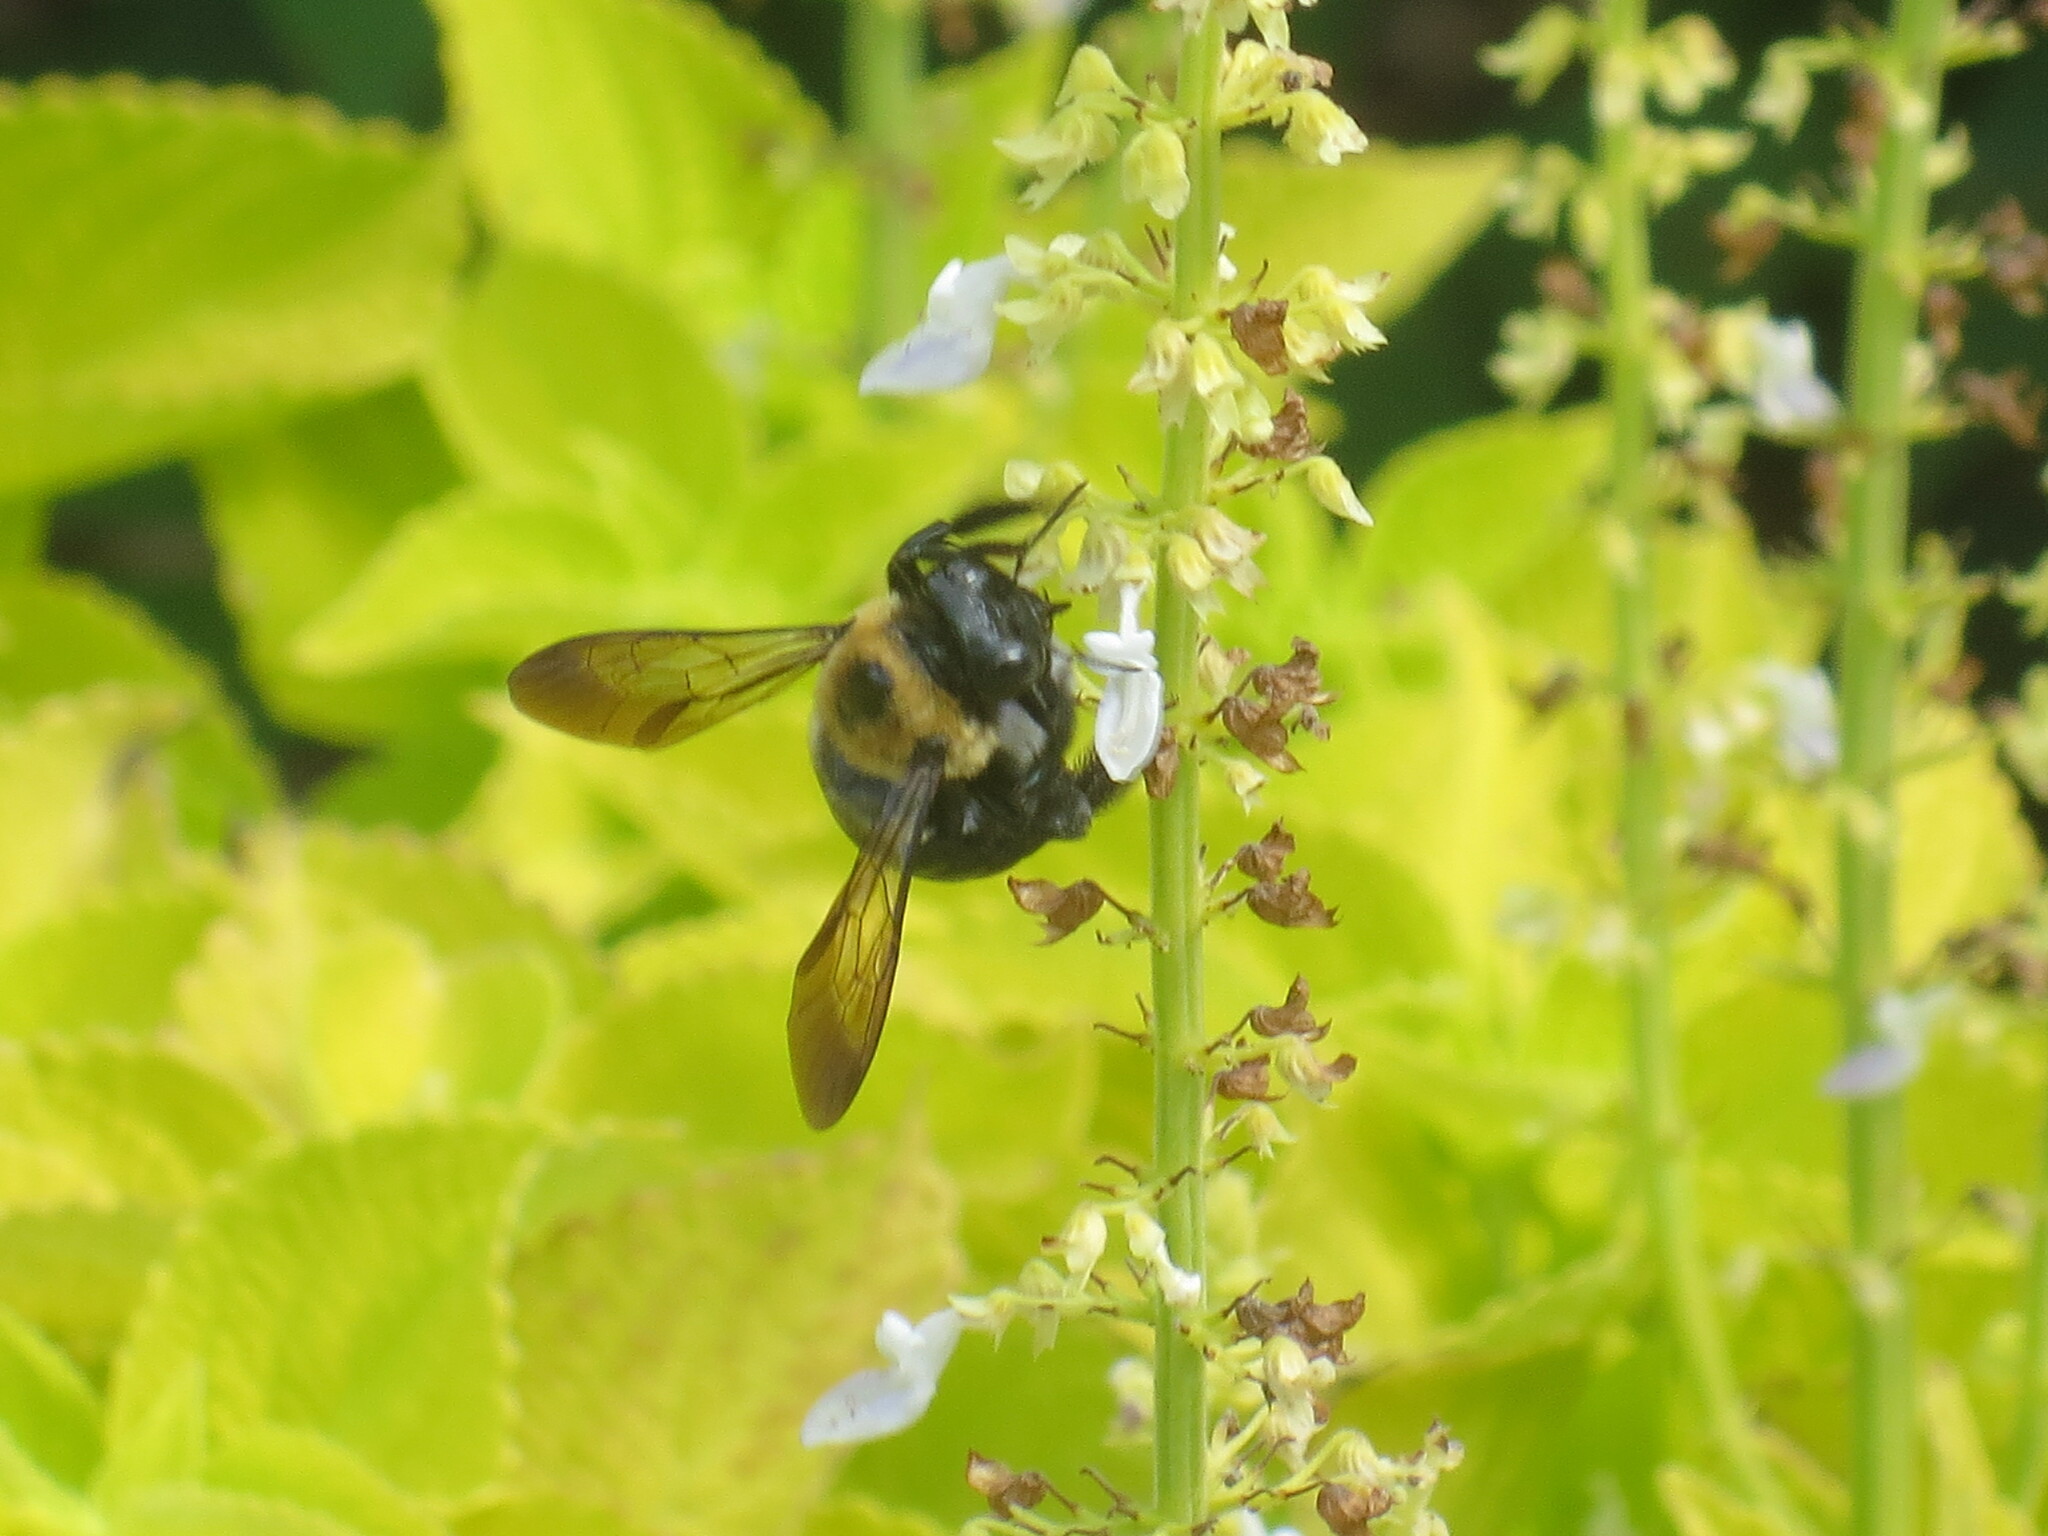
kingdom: Animalia
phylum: Arthropoda
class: Insecta
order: Hymenoptera
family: Apidae
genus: Xylocopa
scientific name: Xylocopa virginica
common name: Carpenter bee
